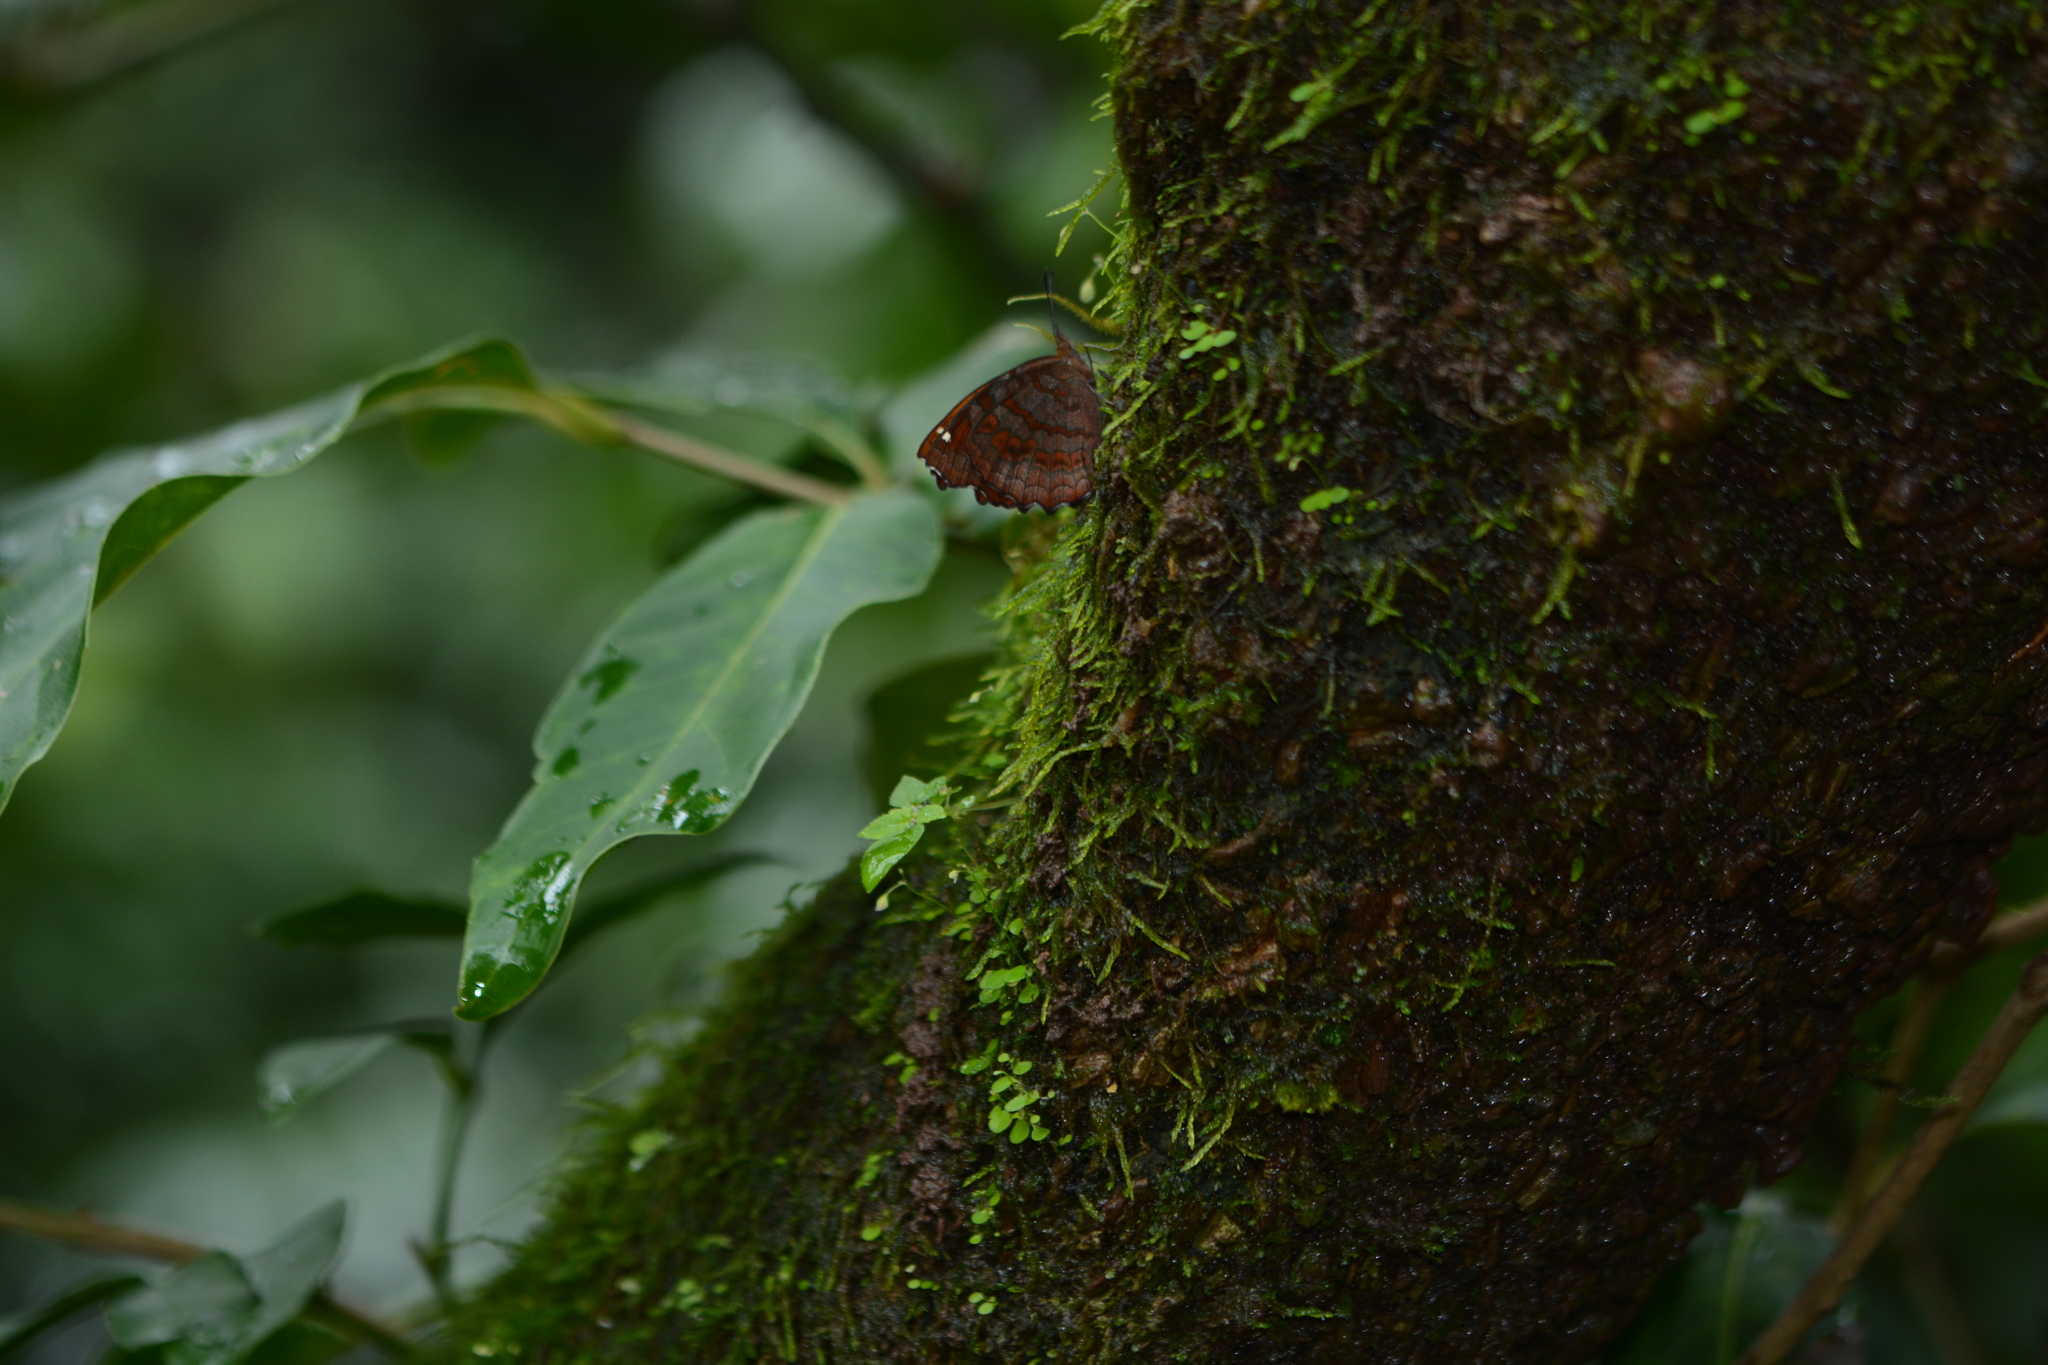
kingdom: Animalia
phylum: Arthropoda
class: Insecta
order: Lepidoptera
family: Nymphalidae
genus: Ariadne
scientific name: Ariadne ariadne
